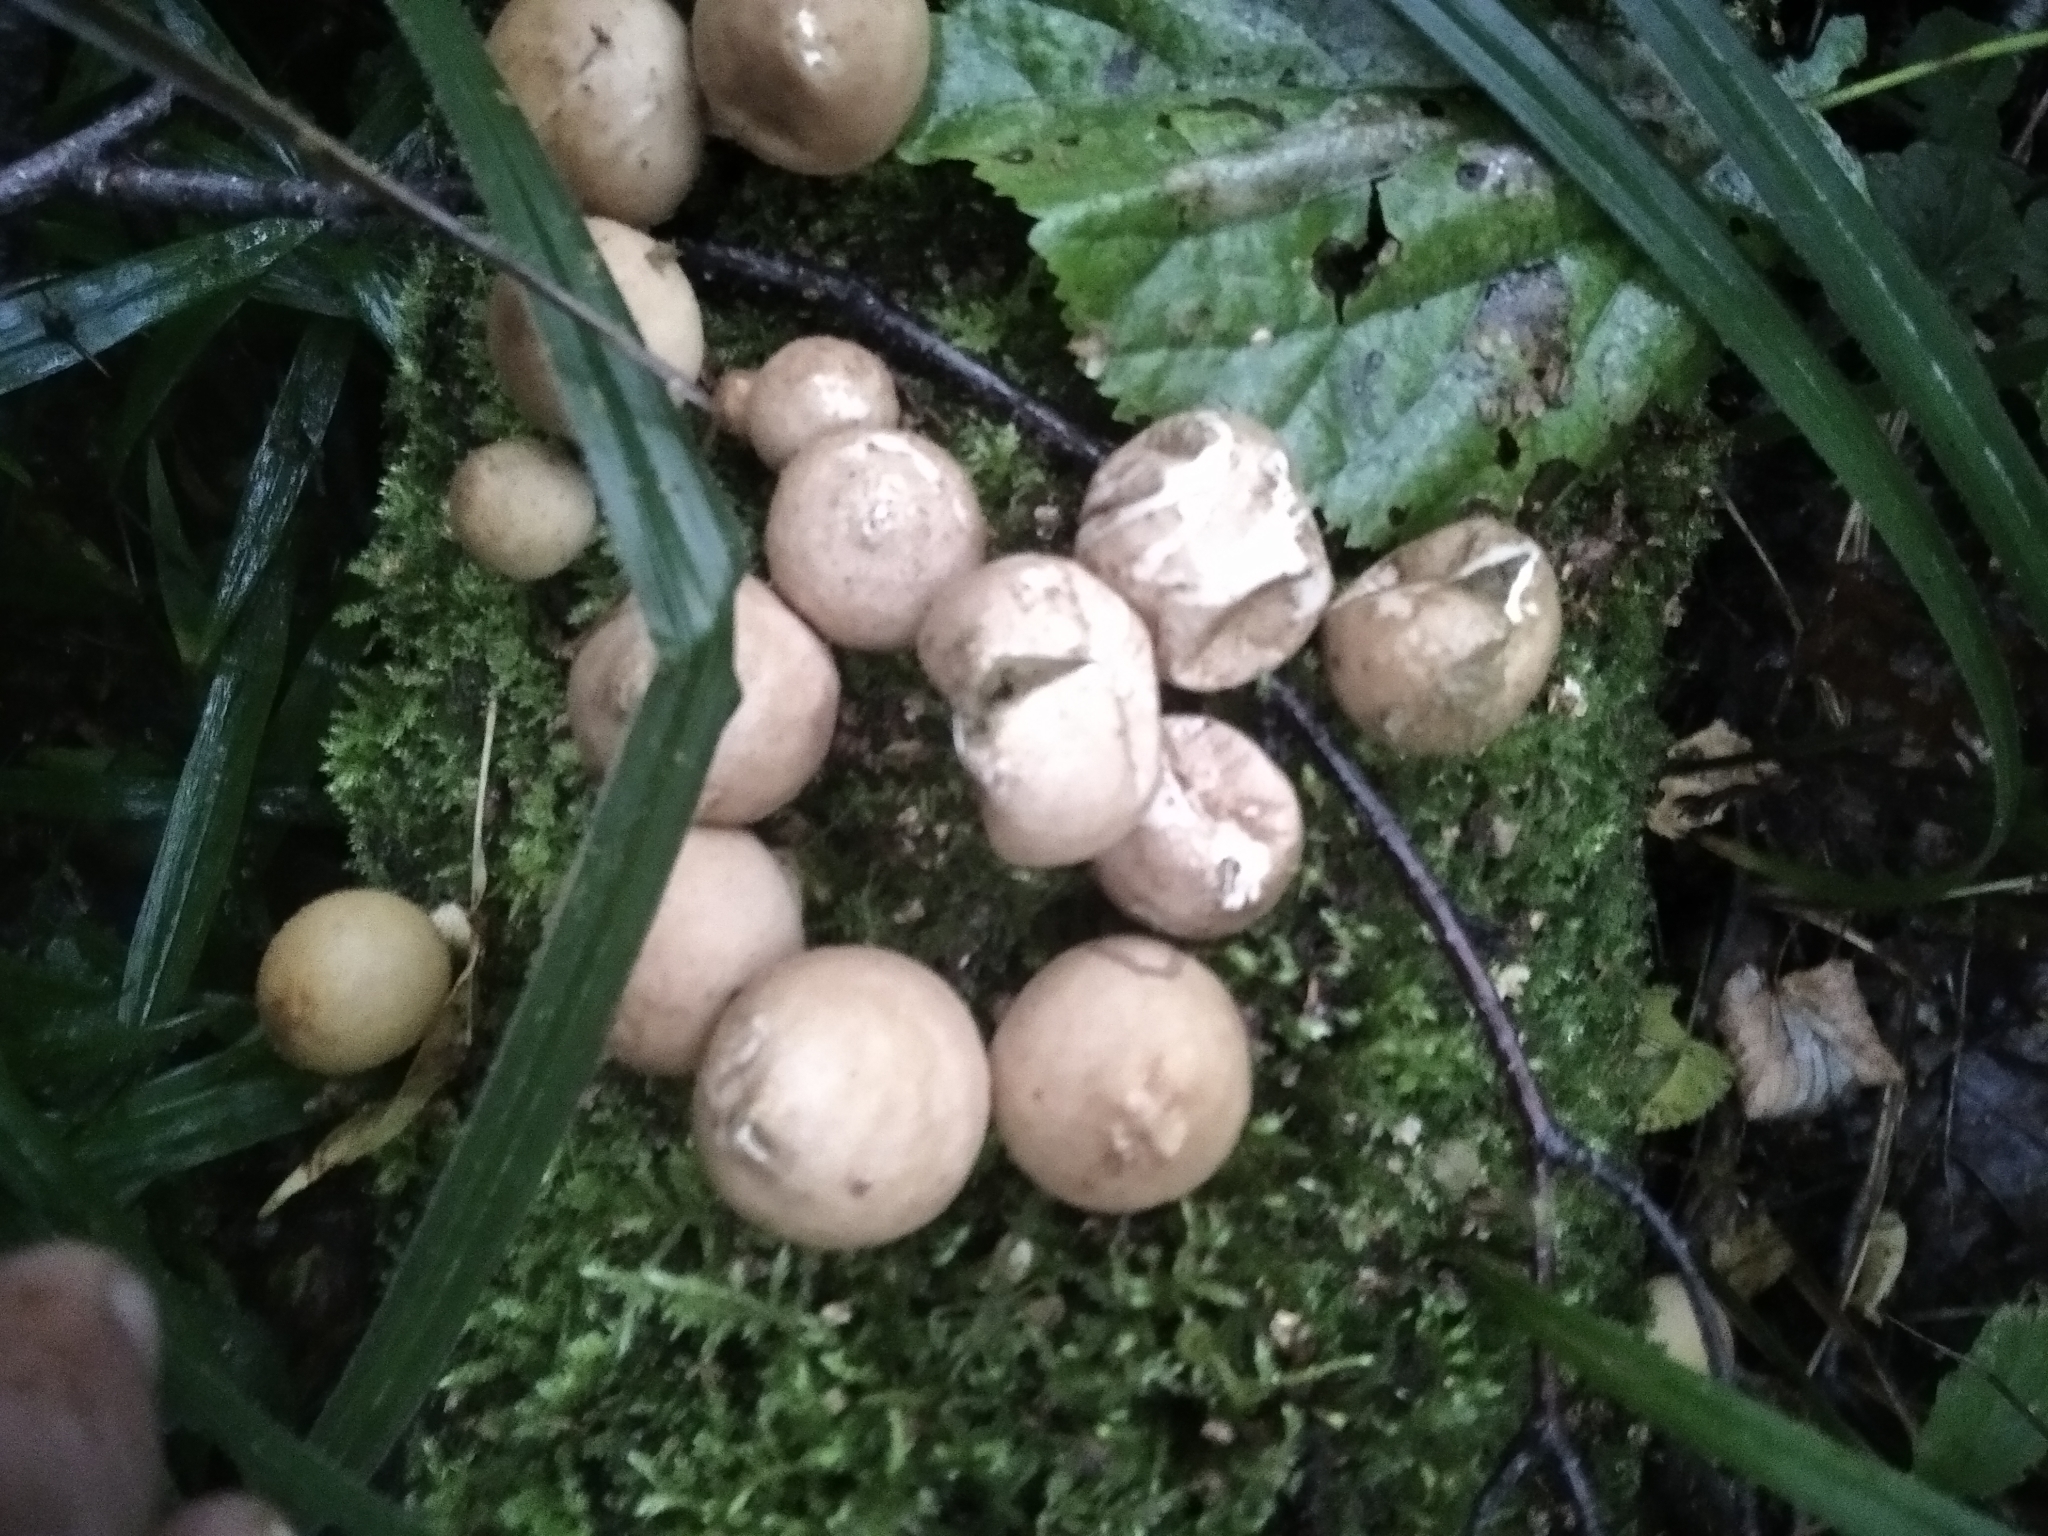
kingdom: Fungi
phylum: Basidiomycota
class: Agaricomycetes
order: Agaricales
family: Lycoperdaceae
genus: Apioperdon
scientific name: Apioperdon pyriforme
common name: Pear-shaped puffball
